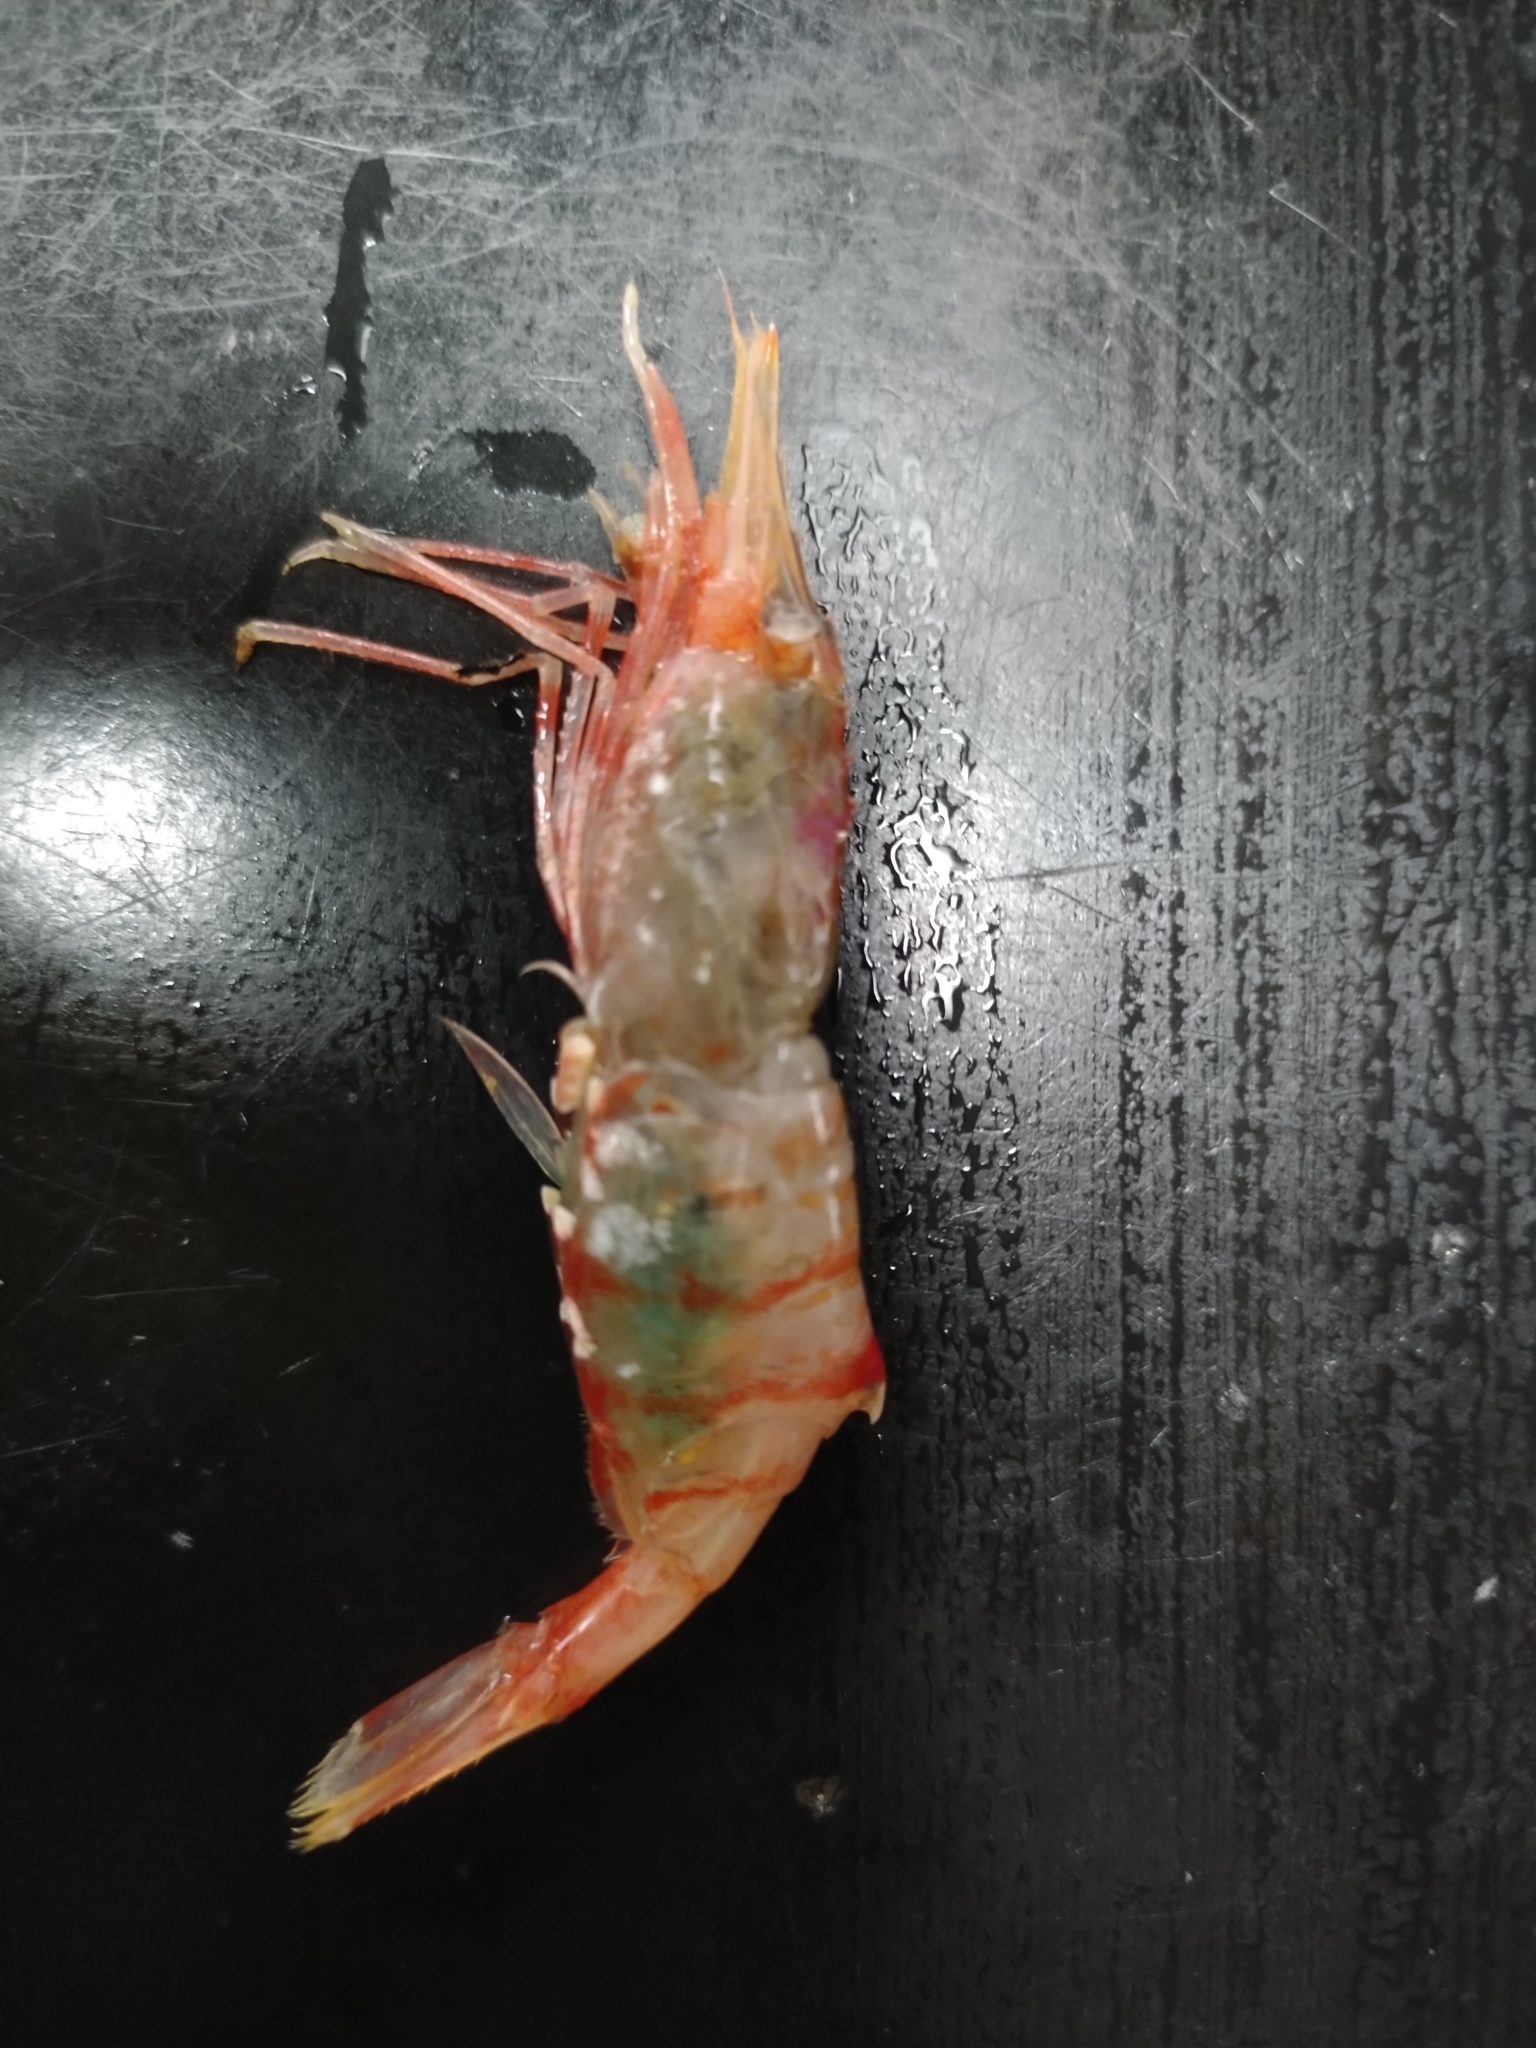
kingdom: Animalia
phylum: Arthropoda
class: Malacostraca
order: Decapoda
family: Thoridae
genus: Eualus
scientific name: Eualus belcheri
